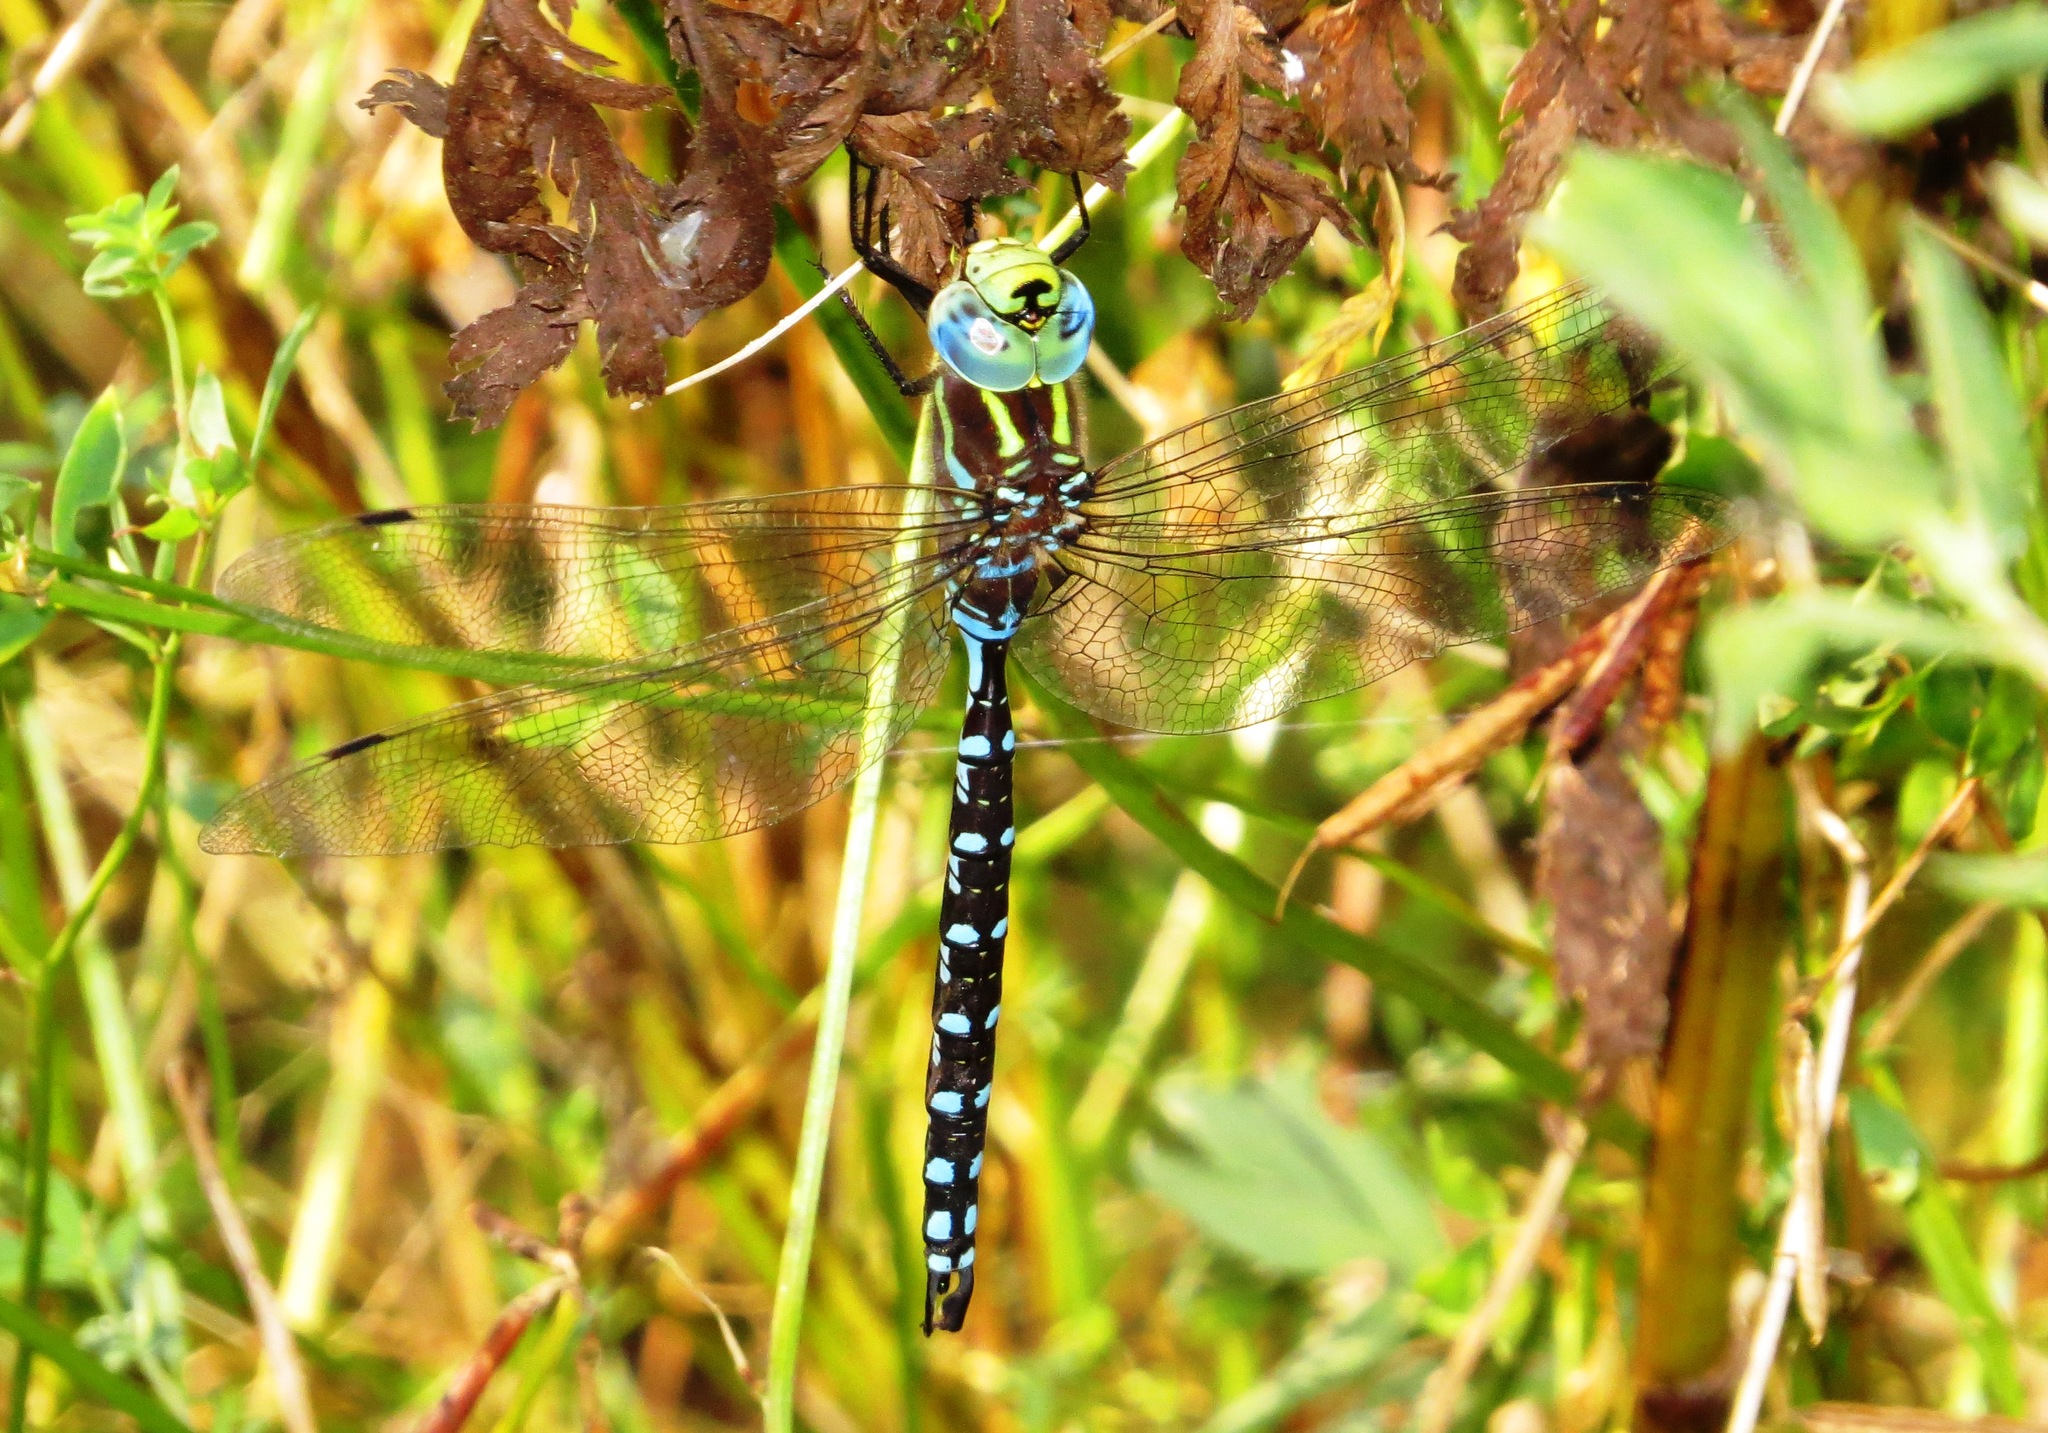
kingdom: Animalia
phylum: Arthropoda
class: Insecta
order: Odonata
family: Aeshnidae
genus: Aeshna
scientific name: Aeshna constricta
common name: Lance-tipped darner
